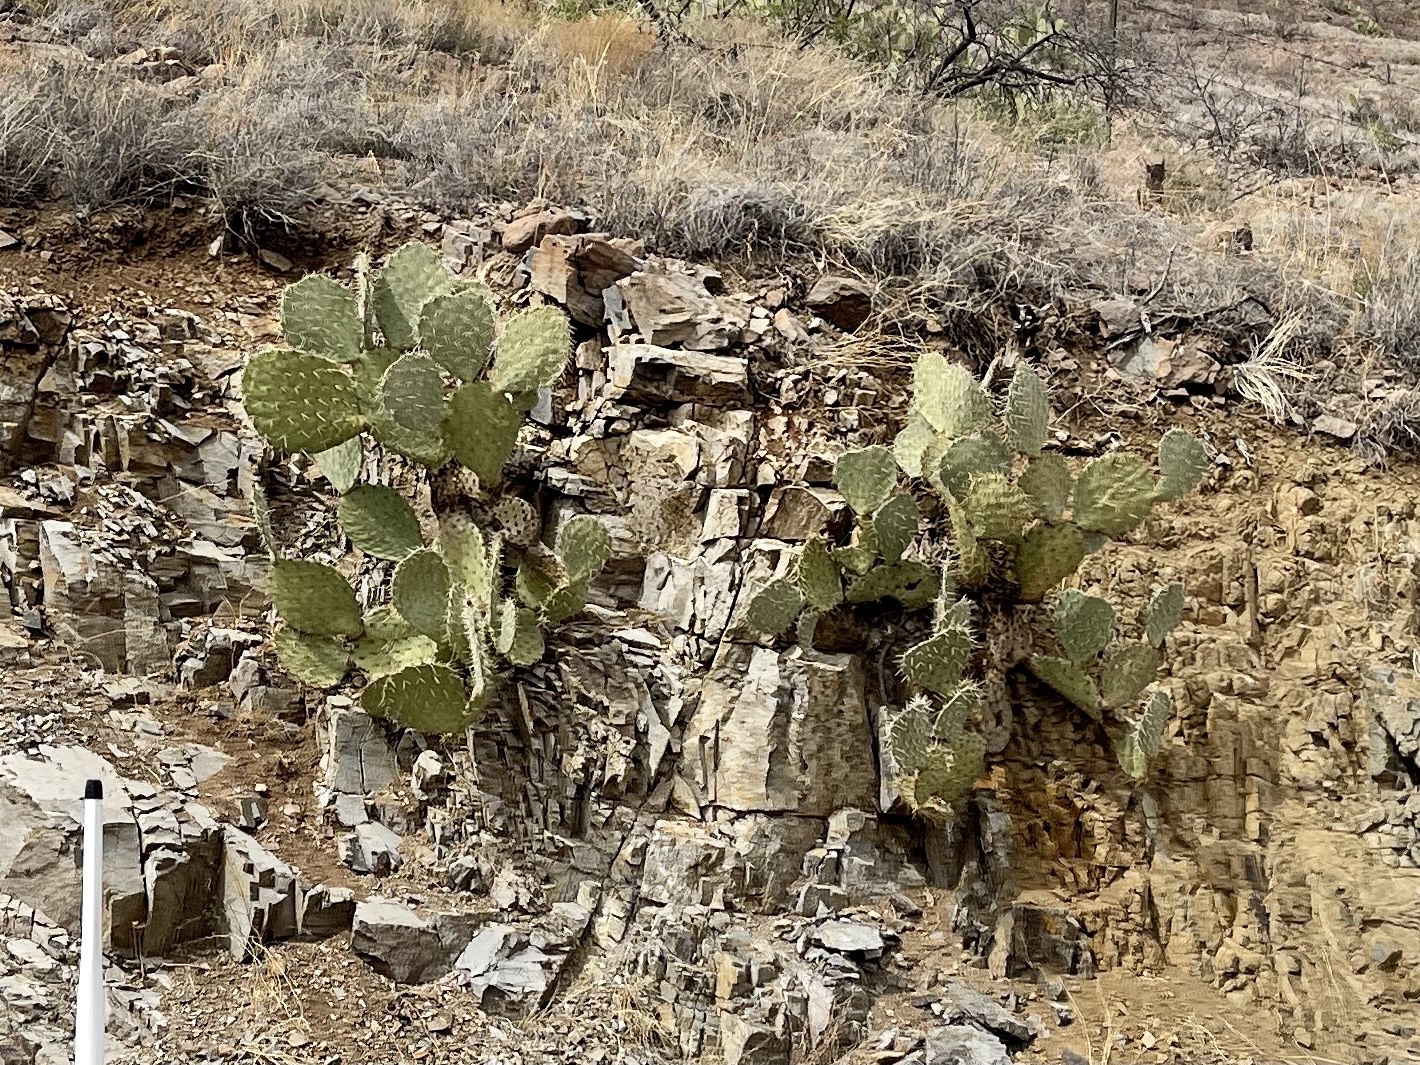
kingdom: Plantae
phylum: Tracheophyta
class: Magnoliopsida
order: Caryophyllales
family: Cactaceae
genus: Opuntia
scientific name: Opuntia engelmannii
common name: Cactus-apple
